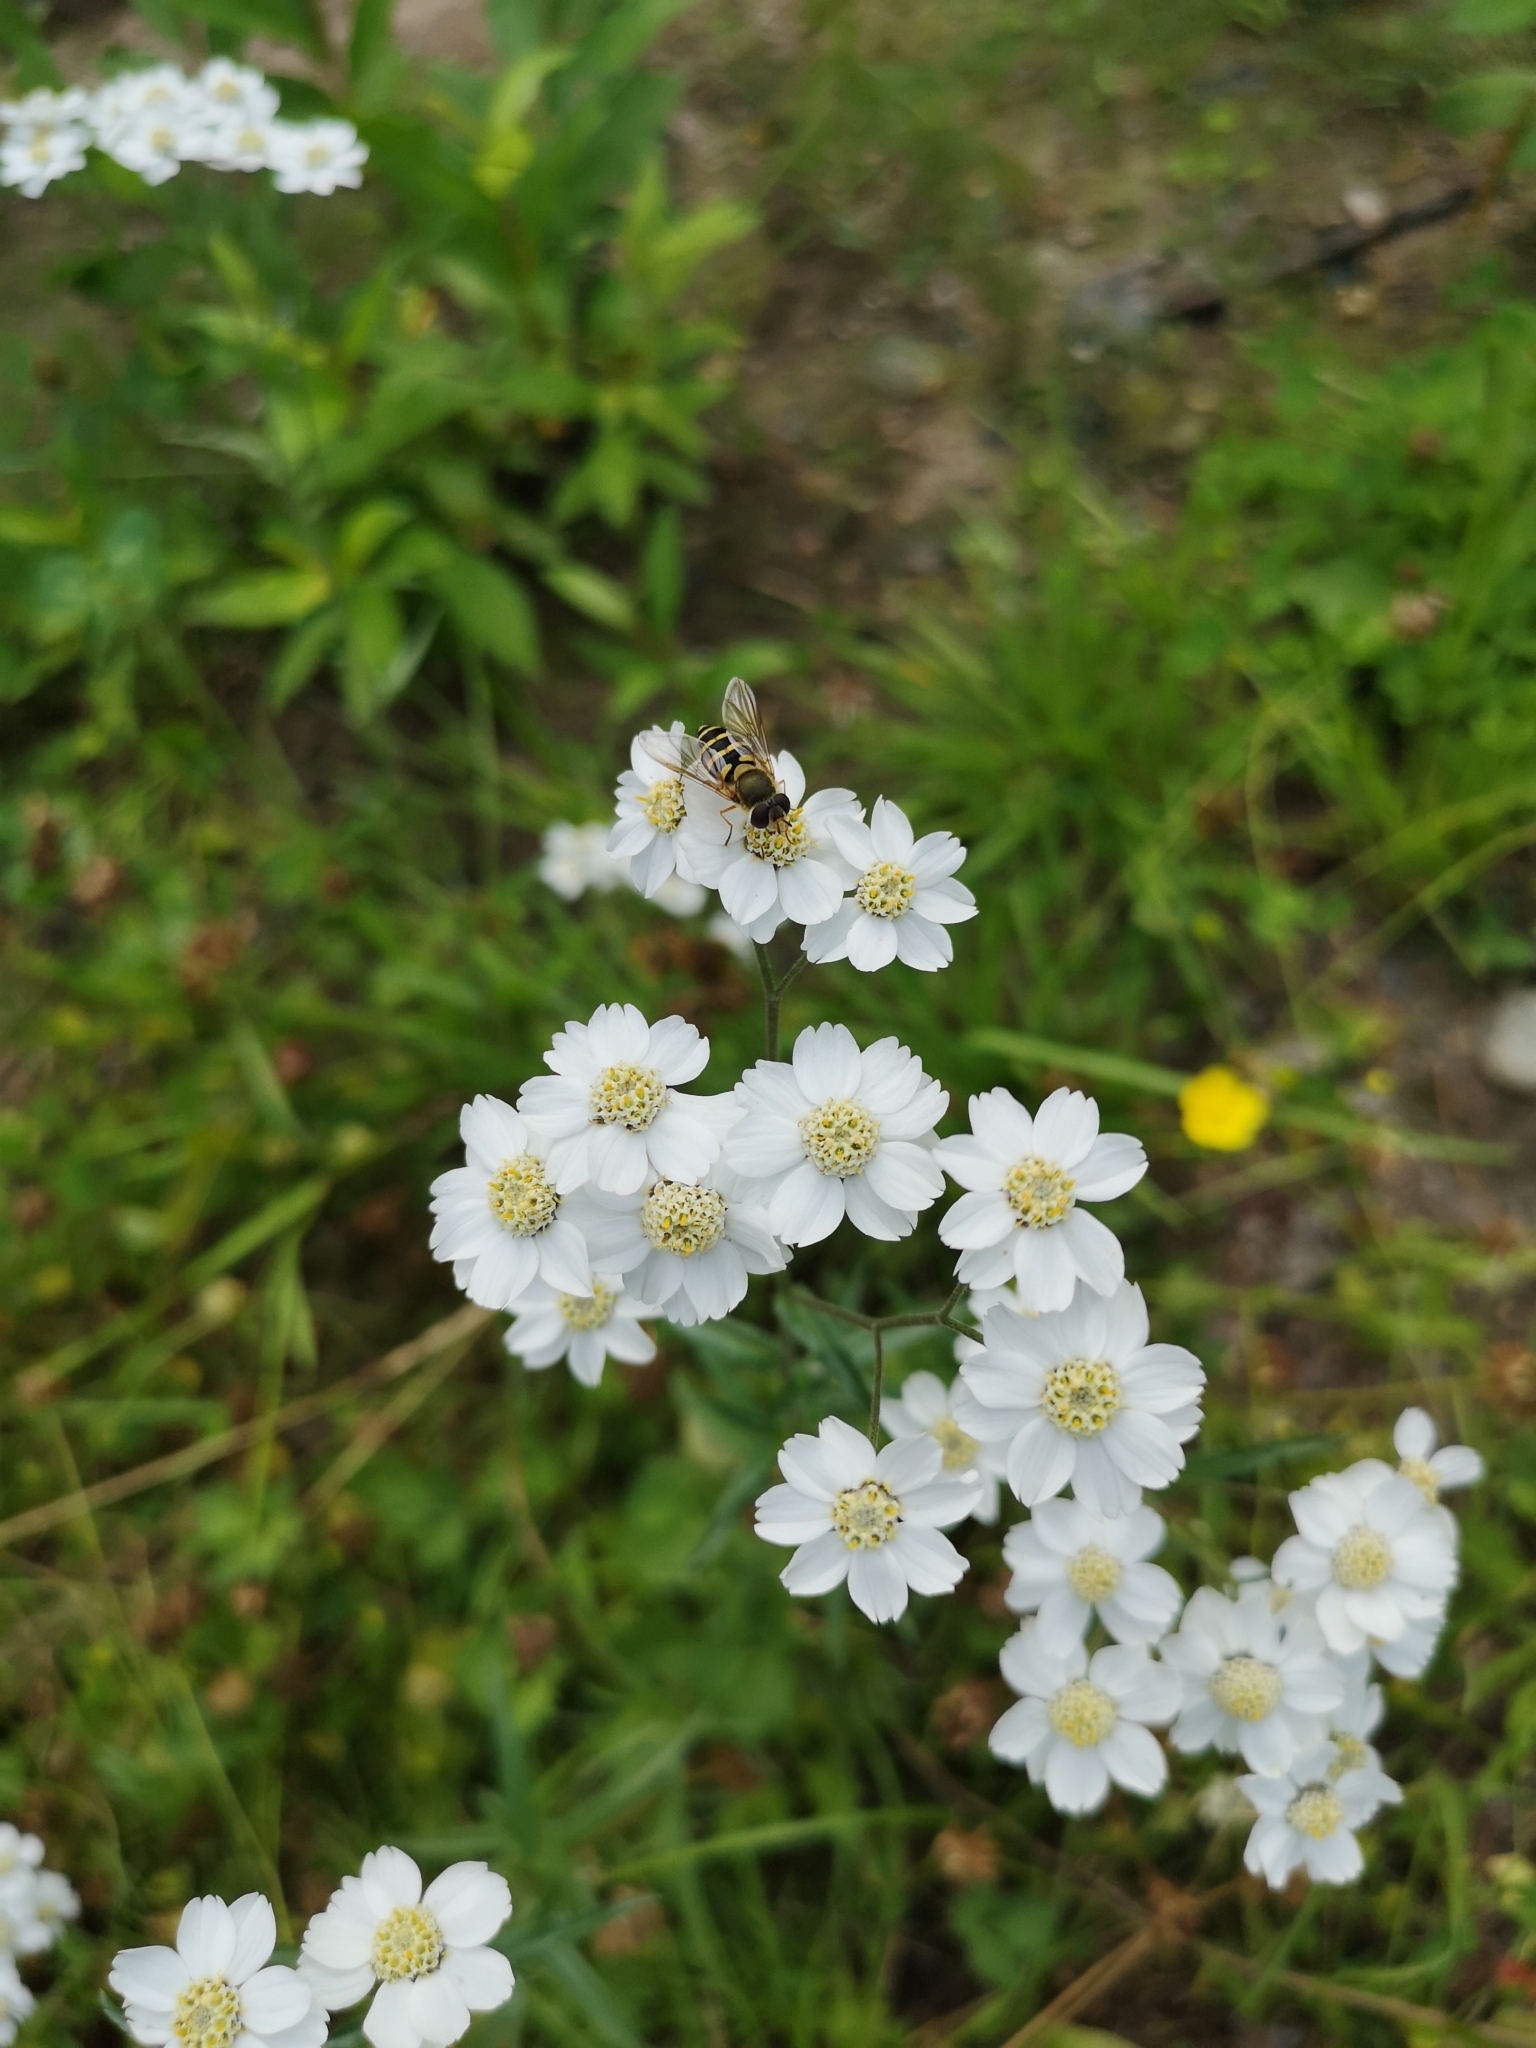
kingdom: Plantae
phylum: Tracheophyta
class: Magnoliopsida
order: Asterales
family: Asteraceae
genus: Achillea
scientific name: Achillea ptarmica
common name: Sneezeweed
